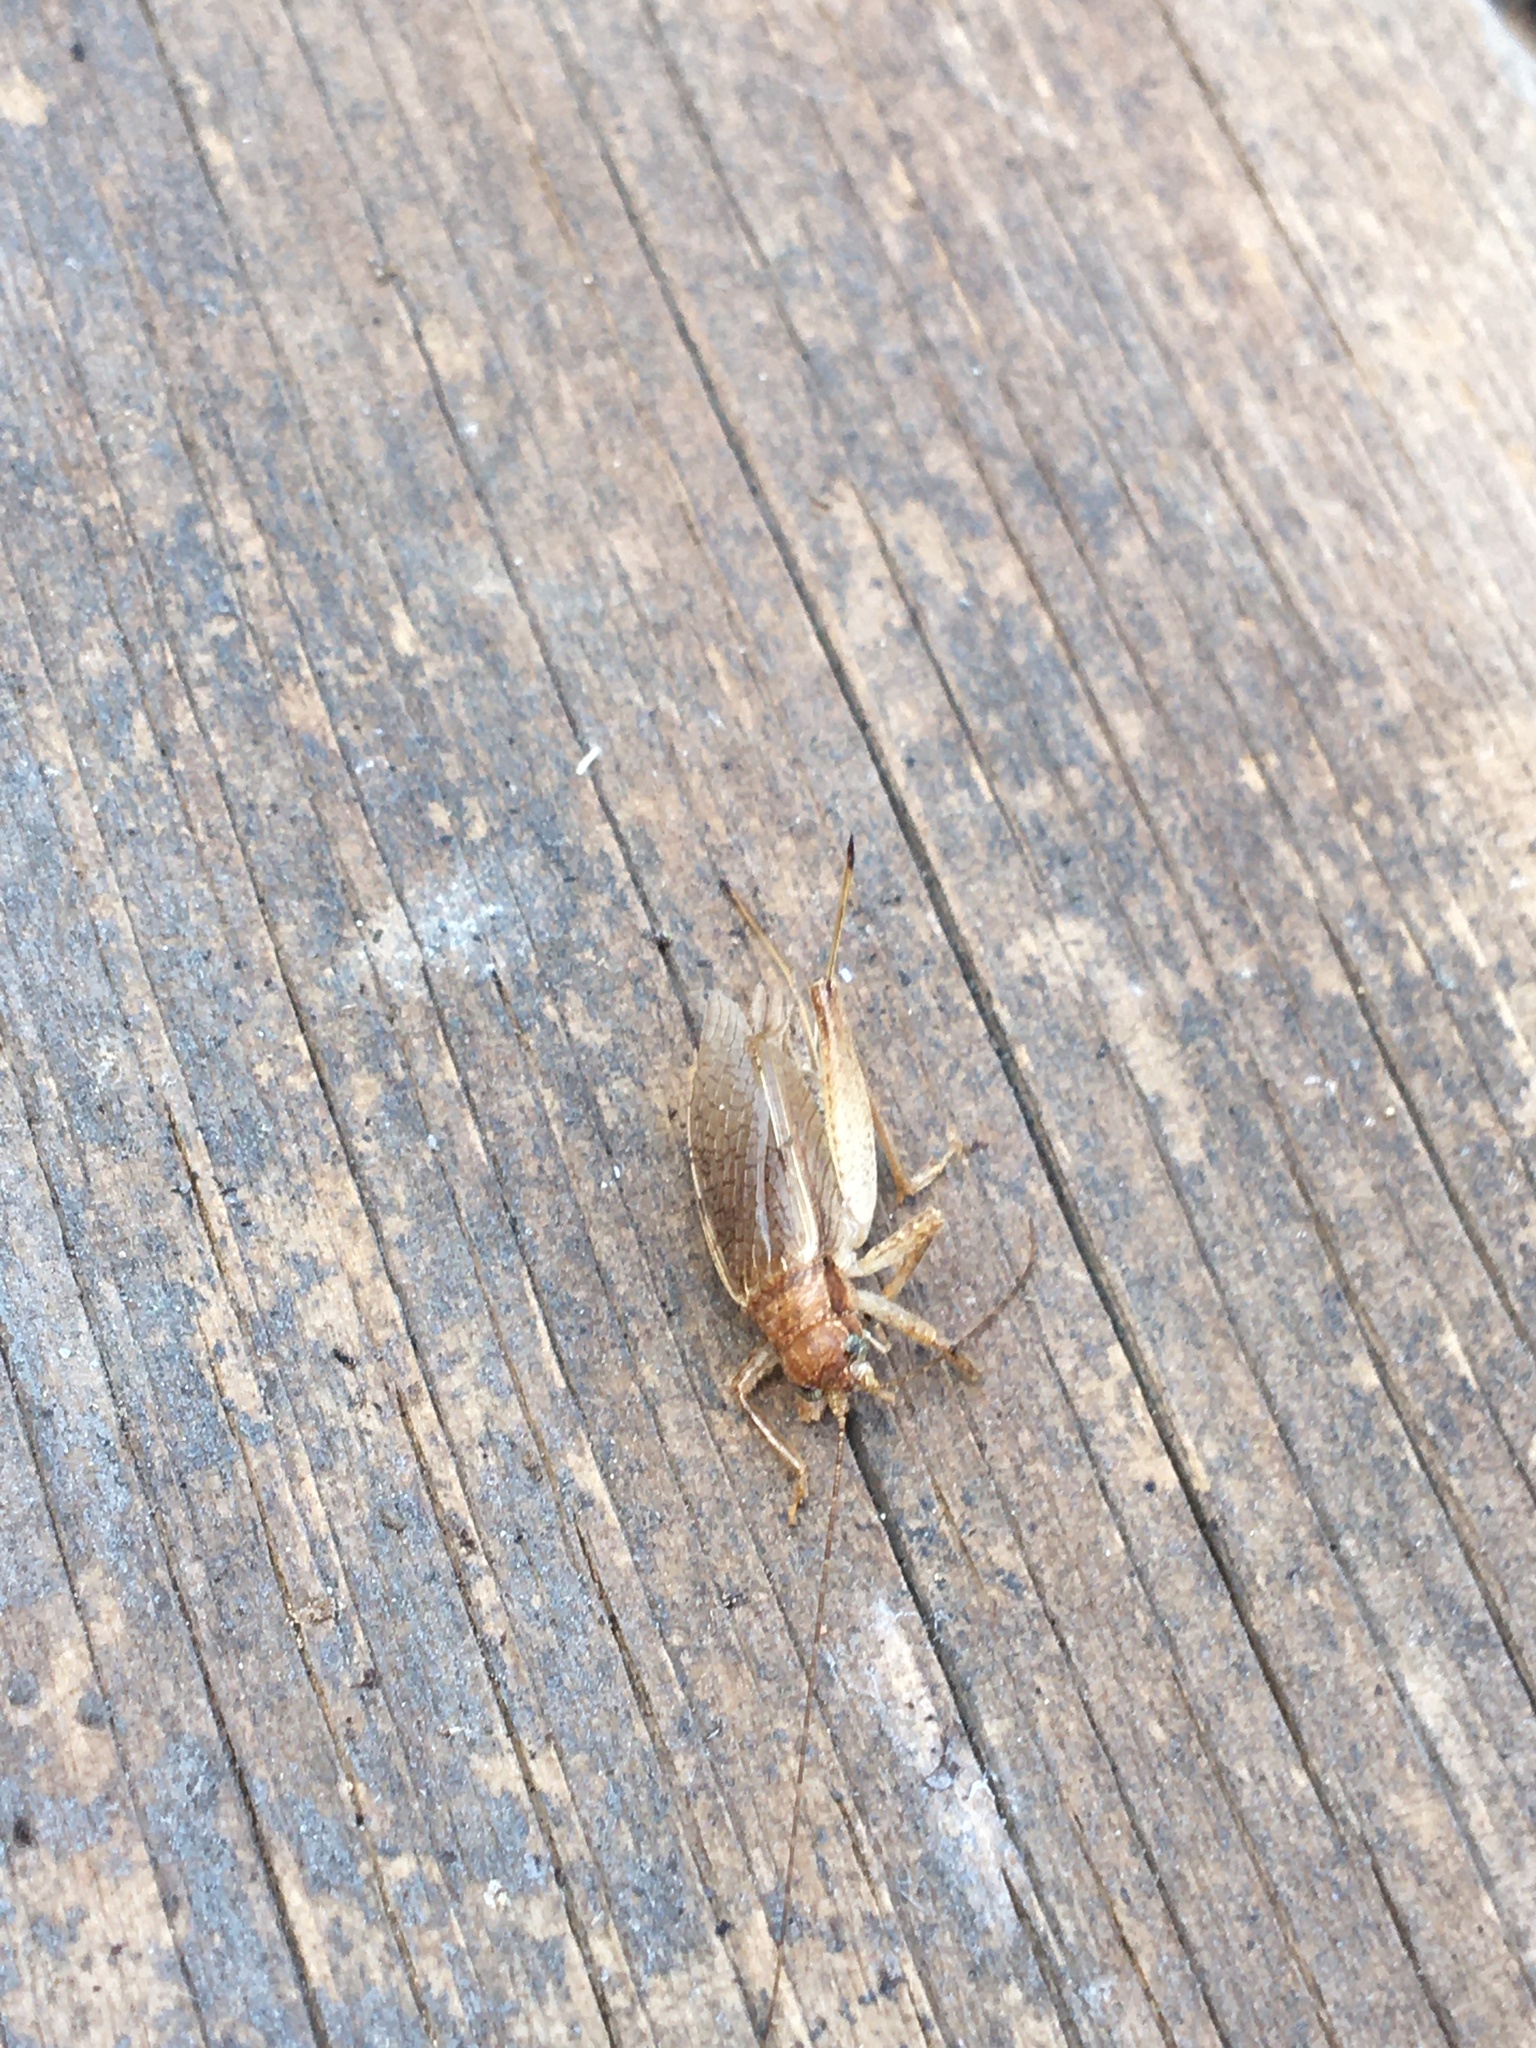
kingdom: Animalia
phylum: Arthropoda
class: Insecta
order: Orthoptera
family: Gryllidae
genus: Hapithus
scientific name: Hapithus saltator
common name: Jumping bush cricket
